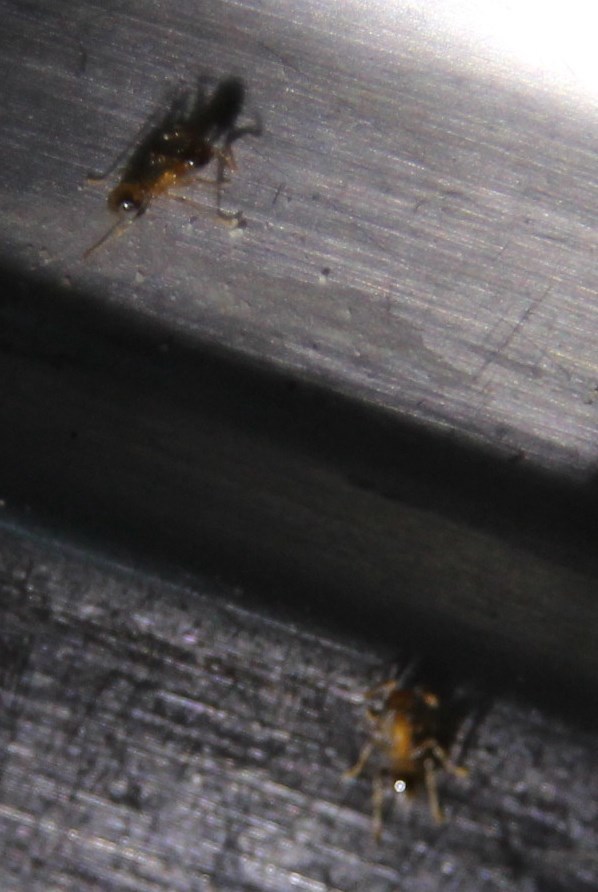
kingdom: Animalia
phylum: Arthropoda
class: Insecta
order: Hymenoptera
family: Formicidae
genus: Pheidole
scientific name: Pheidole megacephala
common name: Bigheaded ant
